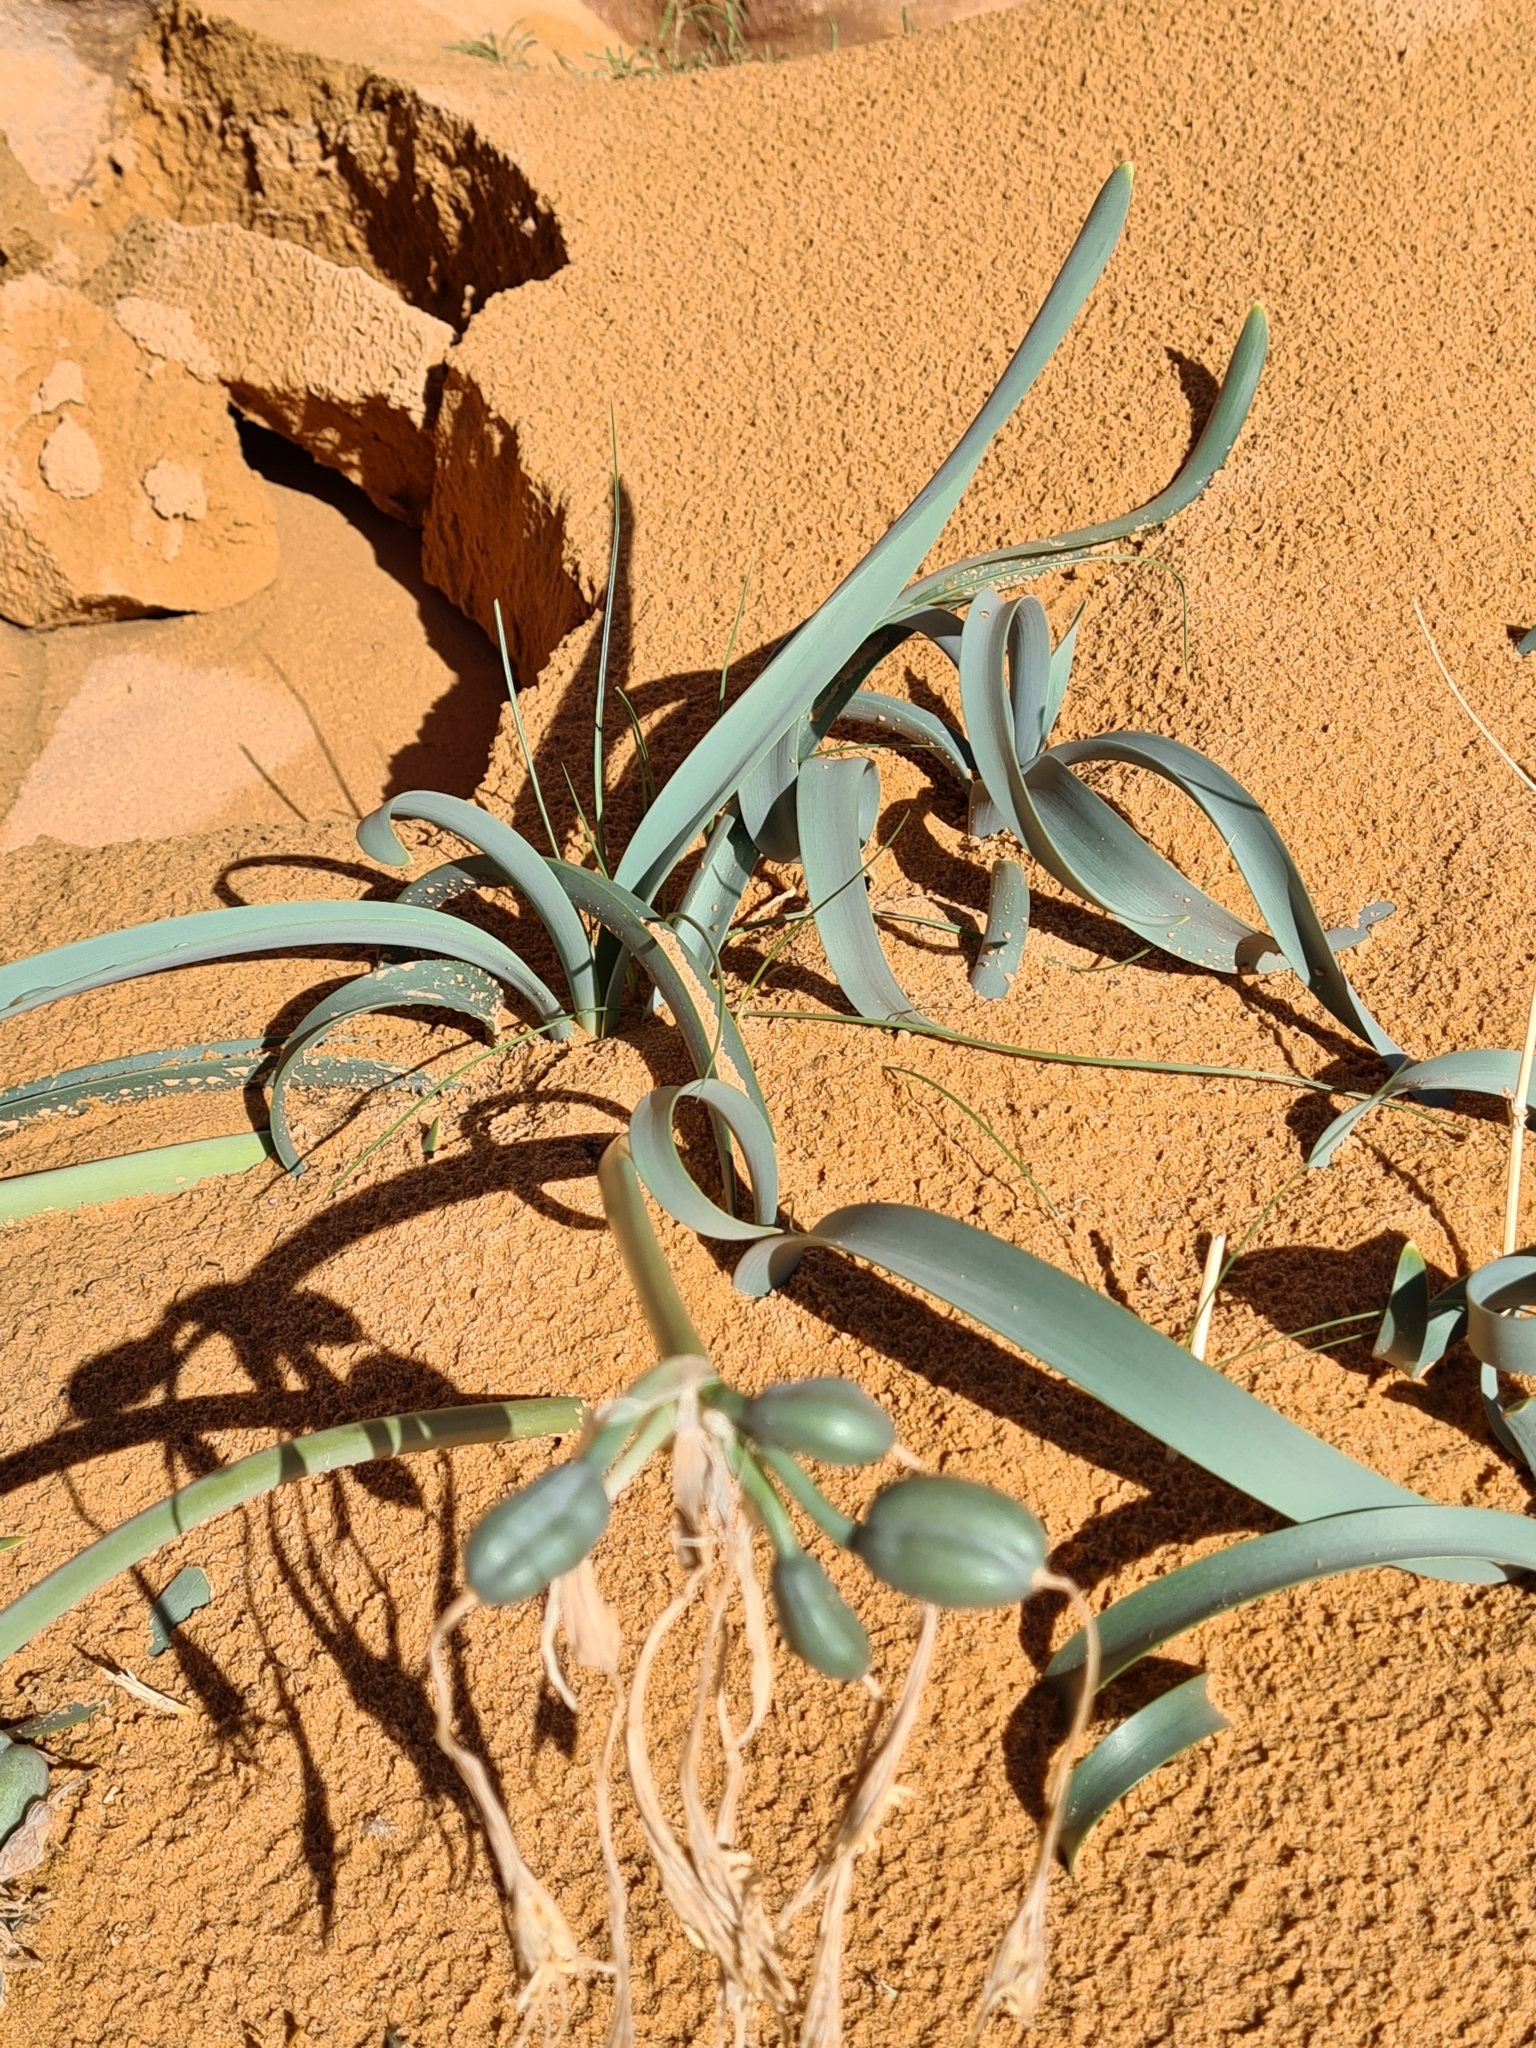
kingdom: Plantae
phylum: Tracheophyta
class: Liliopsida
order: Asparagales
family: Amaryllidaceae
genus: Pancratium
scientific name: Pancratium sickenbergeri
